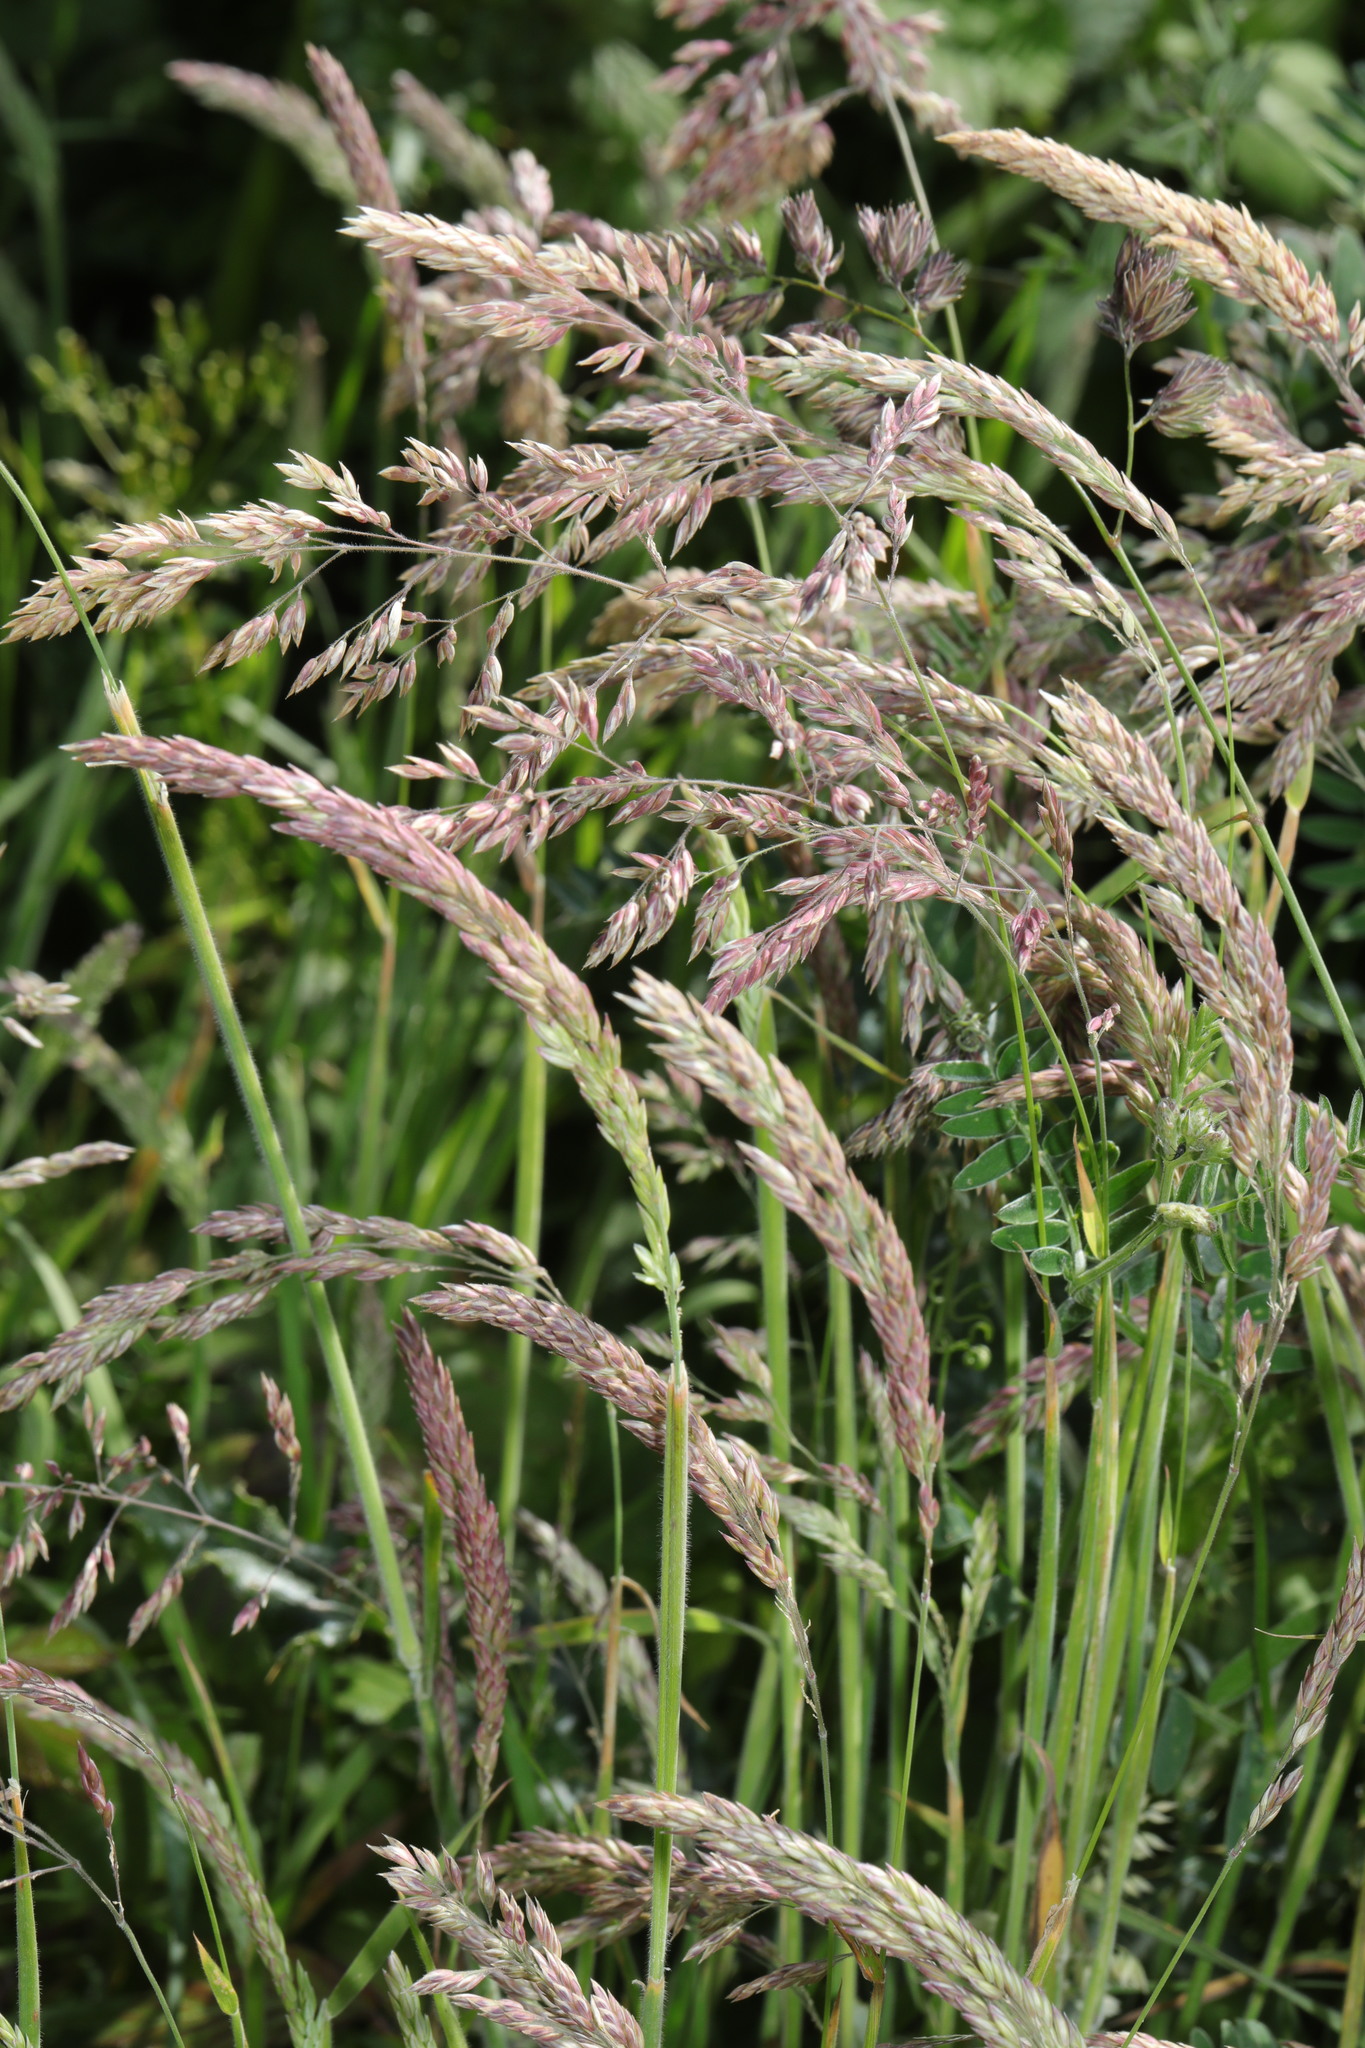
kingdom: Plantae
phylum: Tracheophyta
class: Liliopsida
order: Poales
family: Poaceae
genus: Holcus
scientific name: Holcus lanatus
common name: Yorkshire-fog
